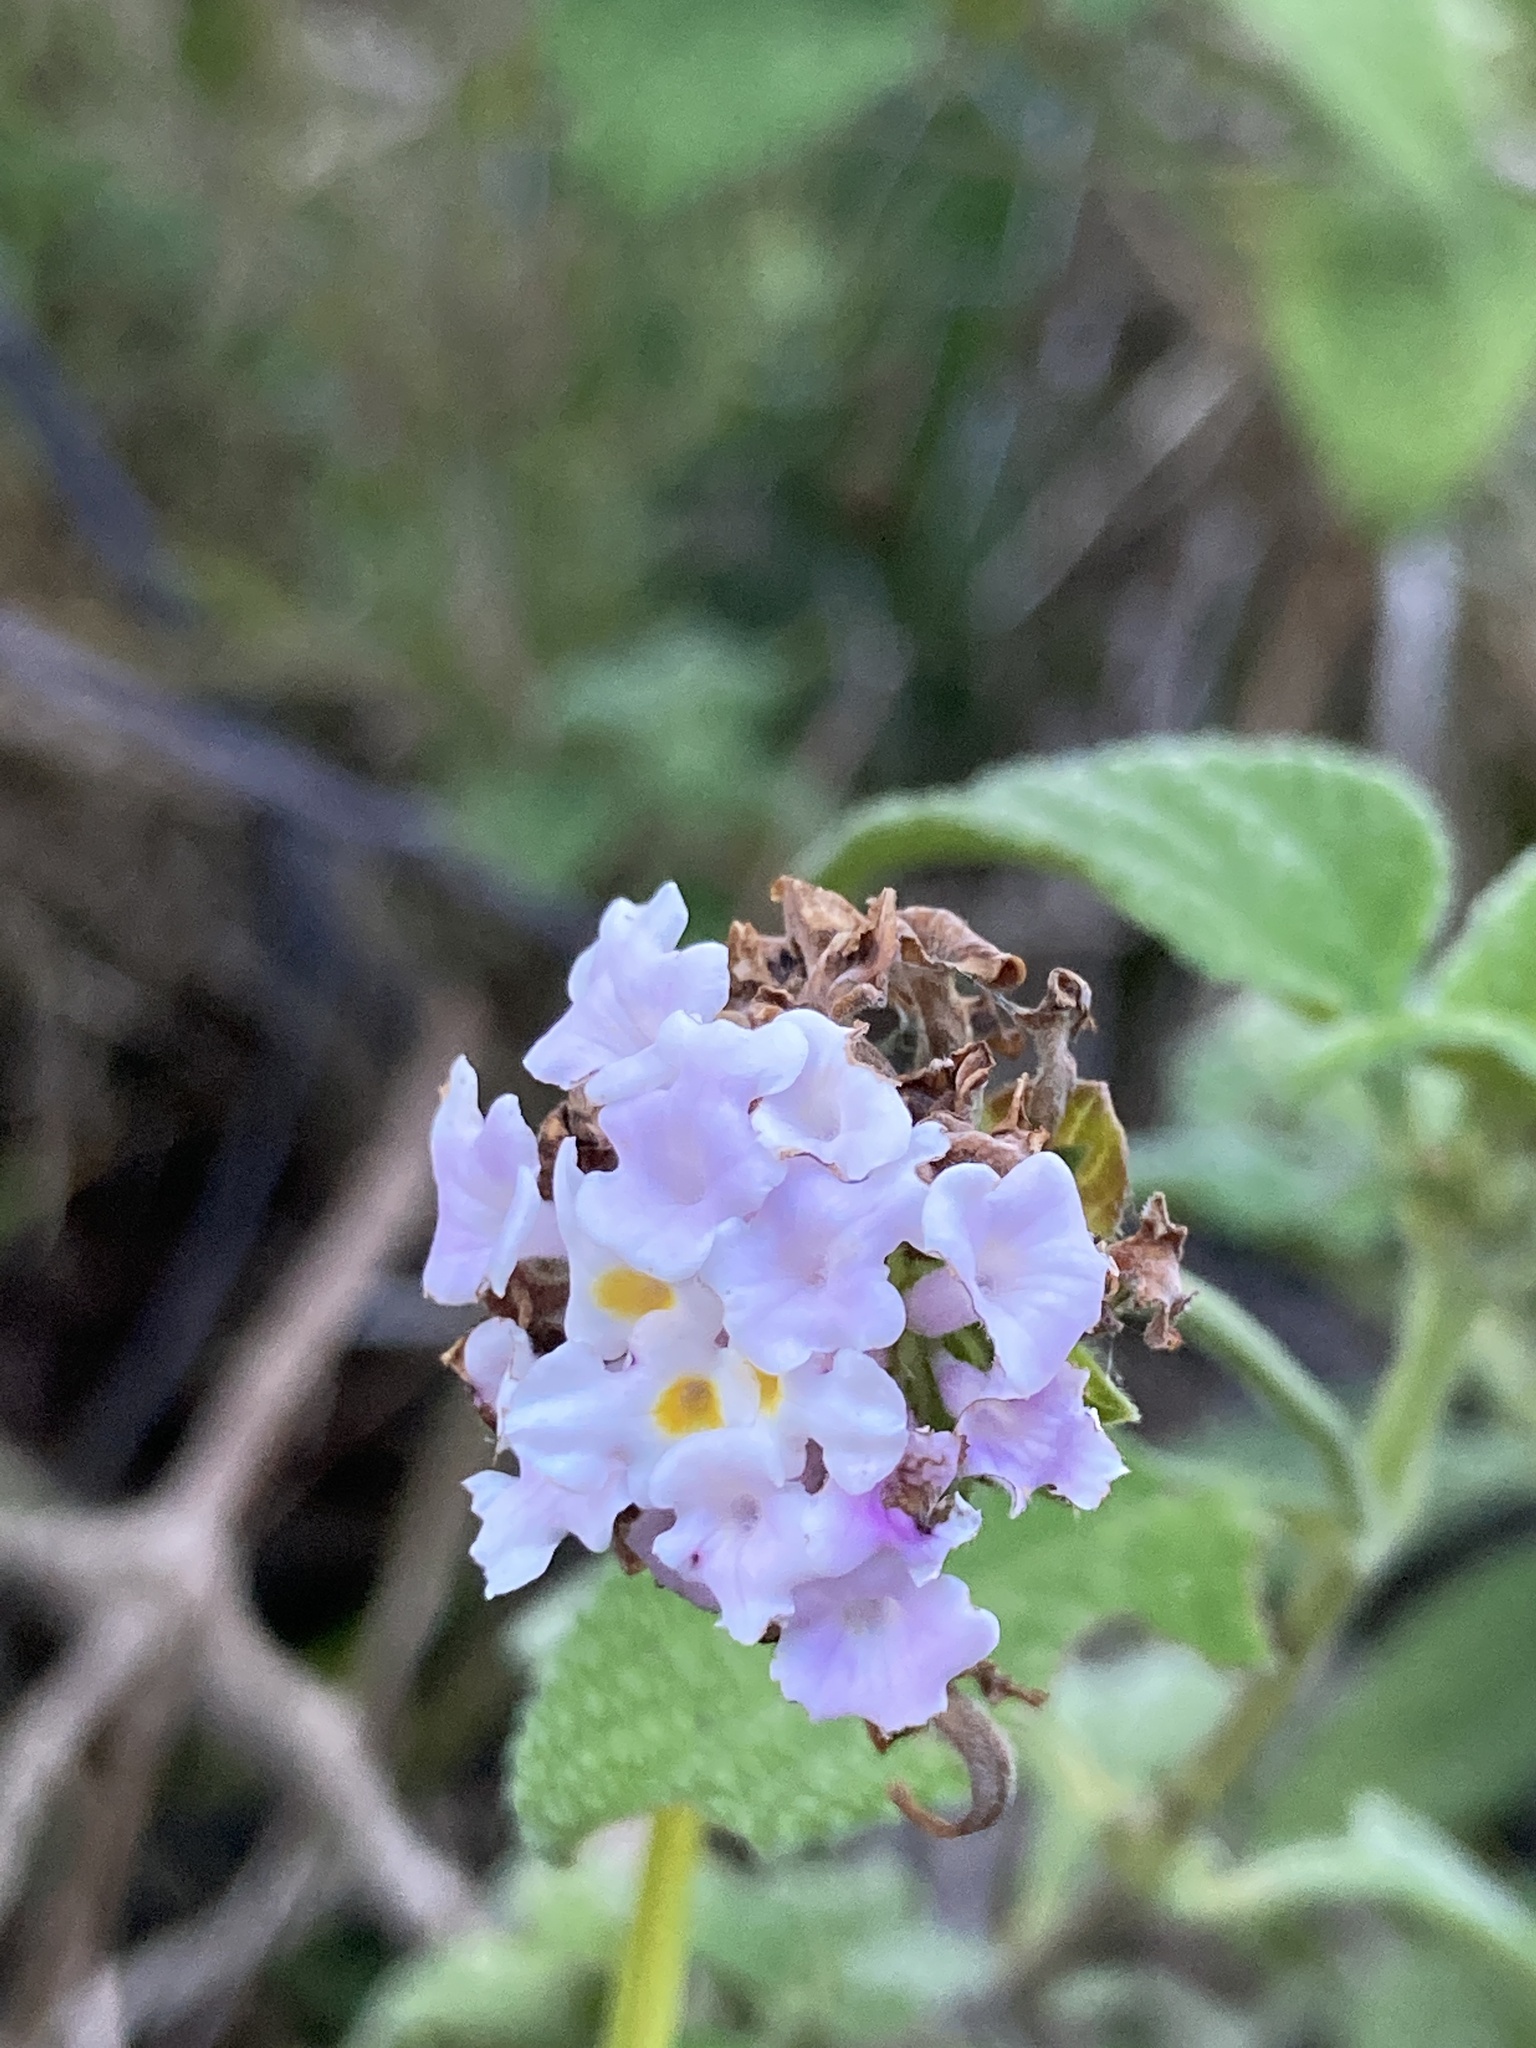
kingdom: Plantae
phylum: Tracheophyta
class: Magnoliopsida
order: Lamiales
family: Verbenaceae
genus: Lippia
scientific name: Lippia alba
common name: Bushy matgrass
